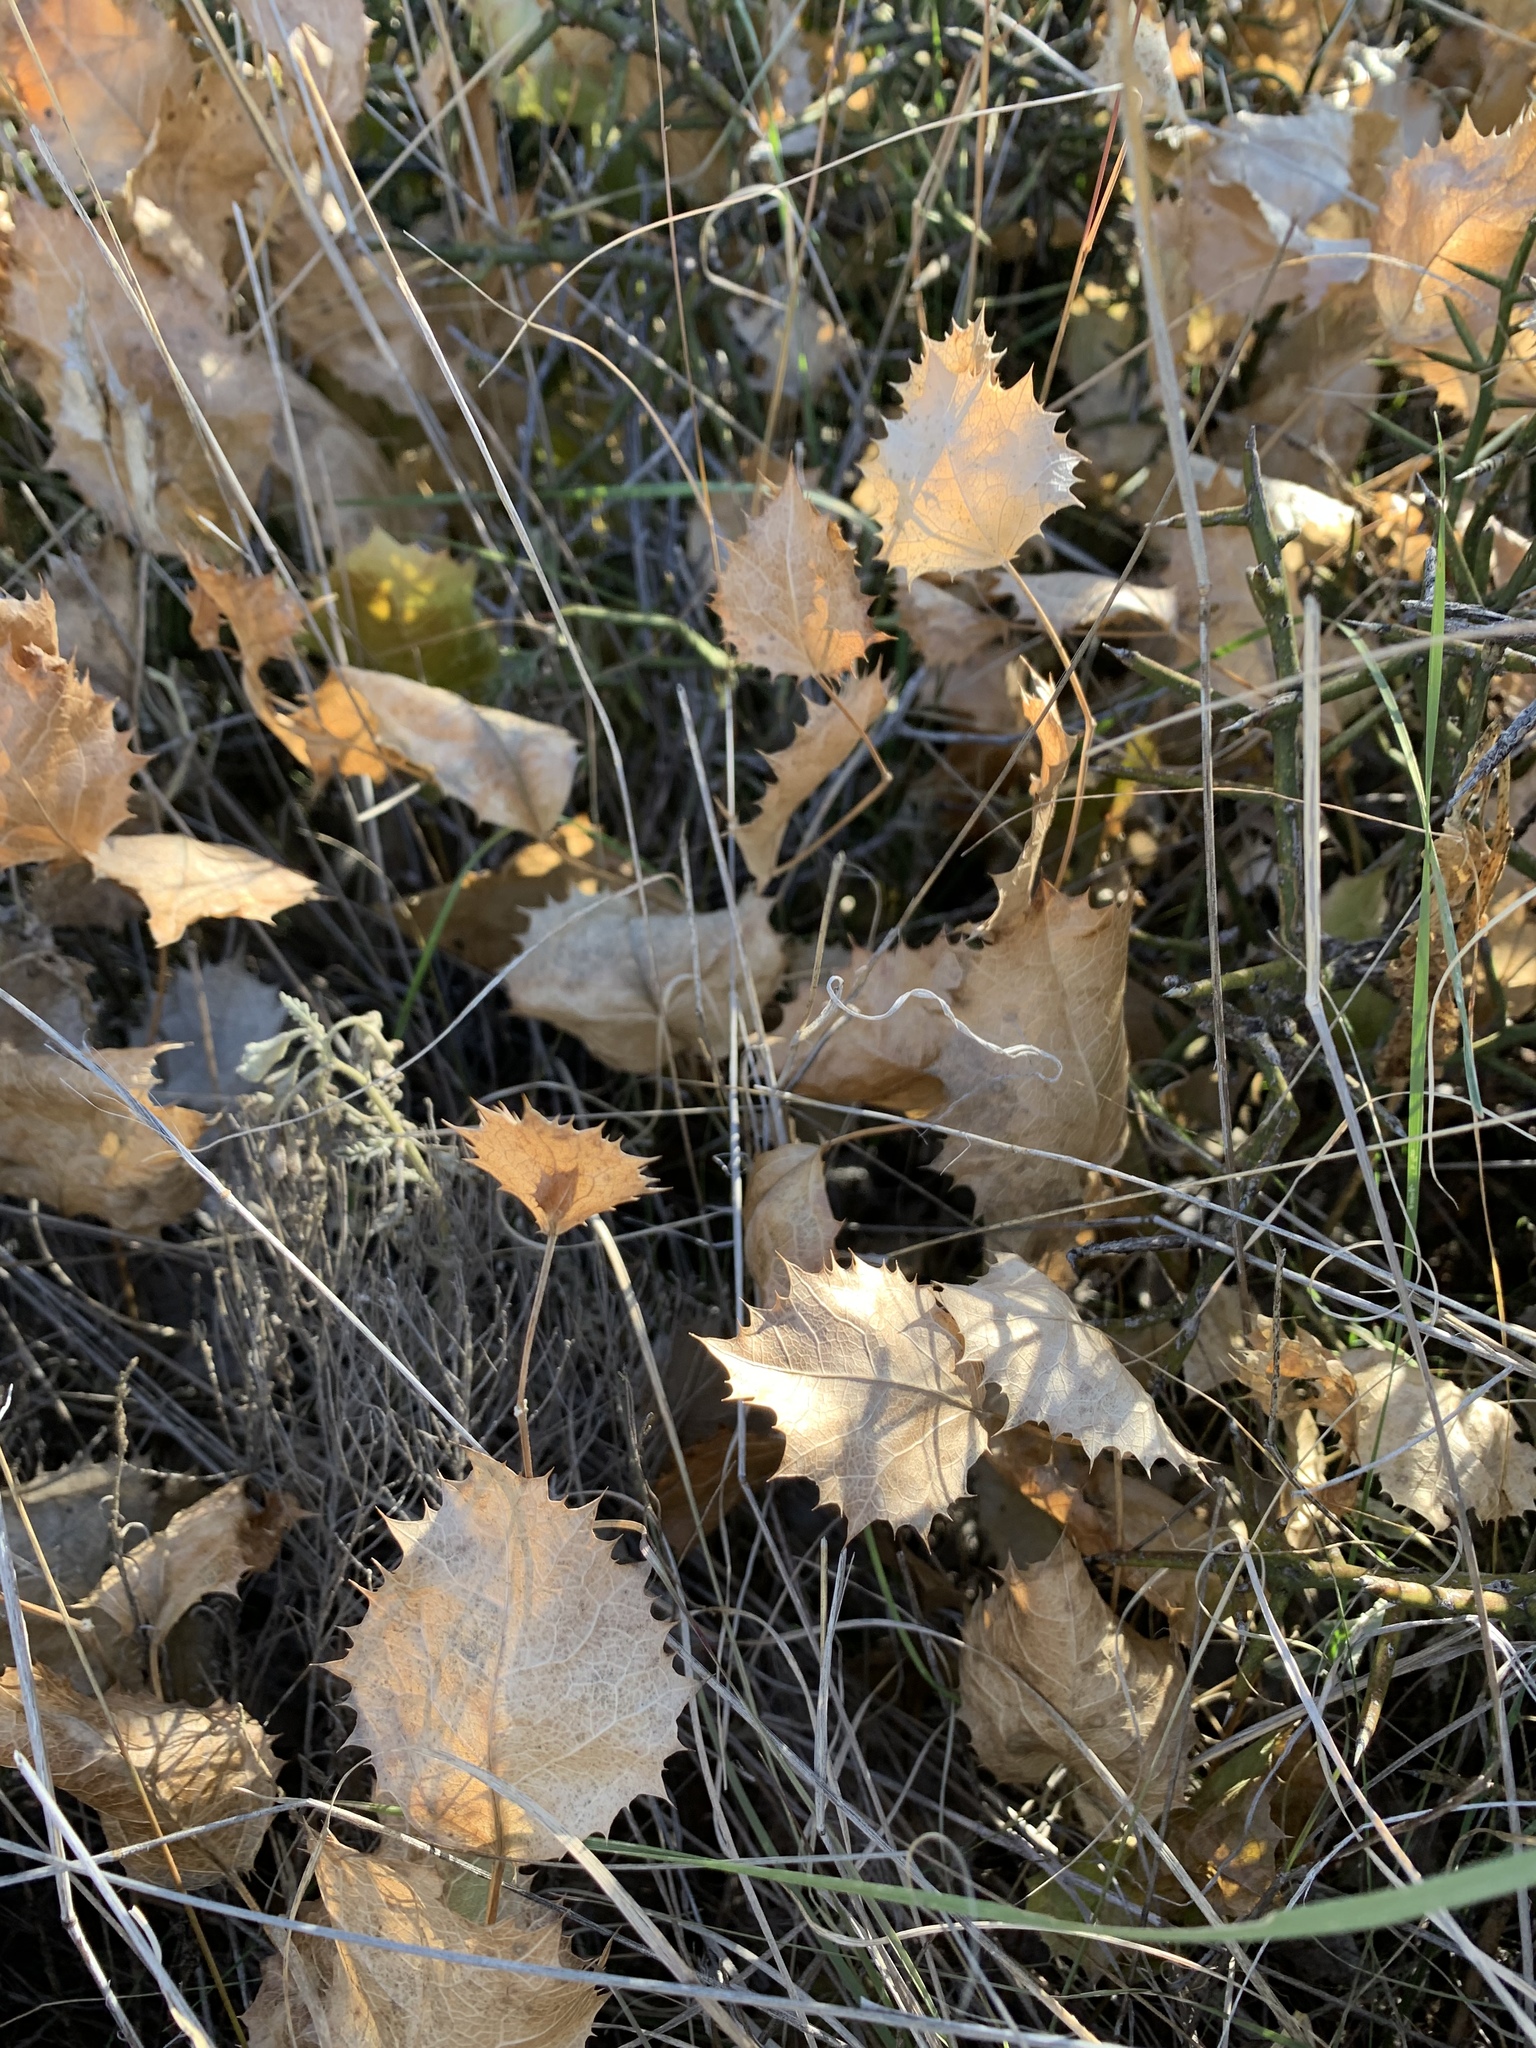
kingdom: Plantae
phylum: Tracheophyta
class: Magnoliopsida
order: Asterales
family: Asteraceae
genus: Acourtia
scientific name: Acourtia nana
